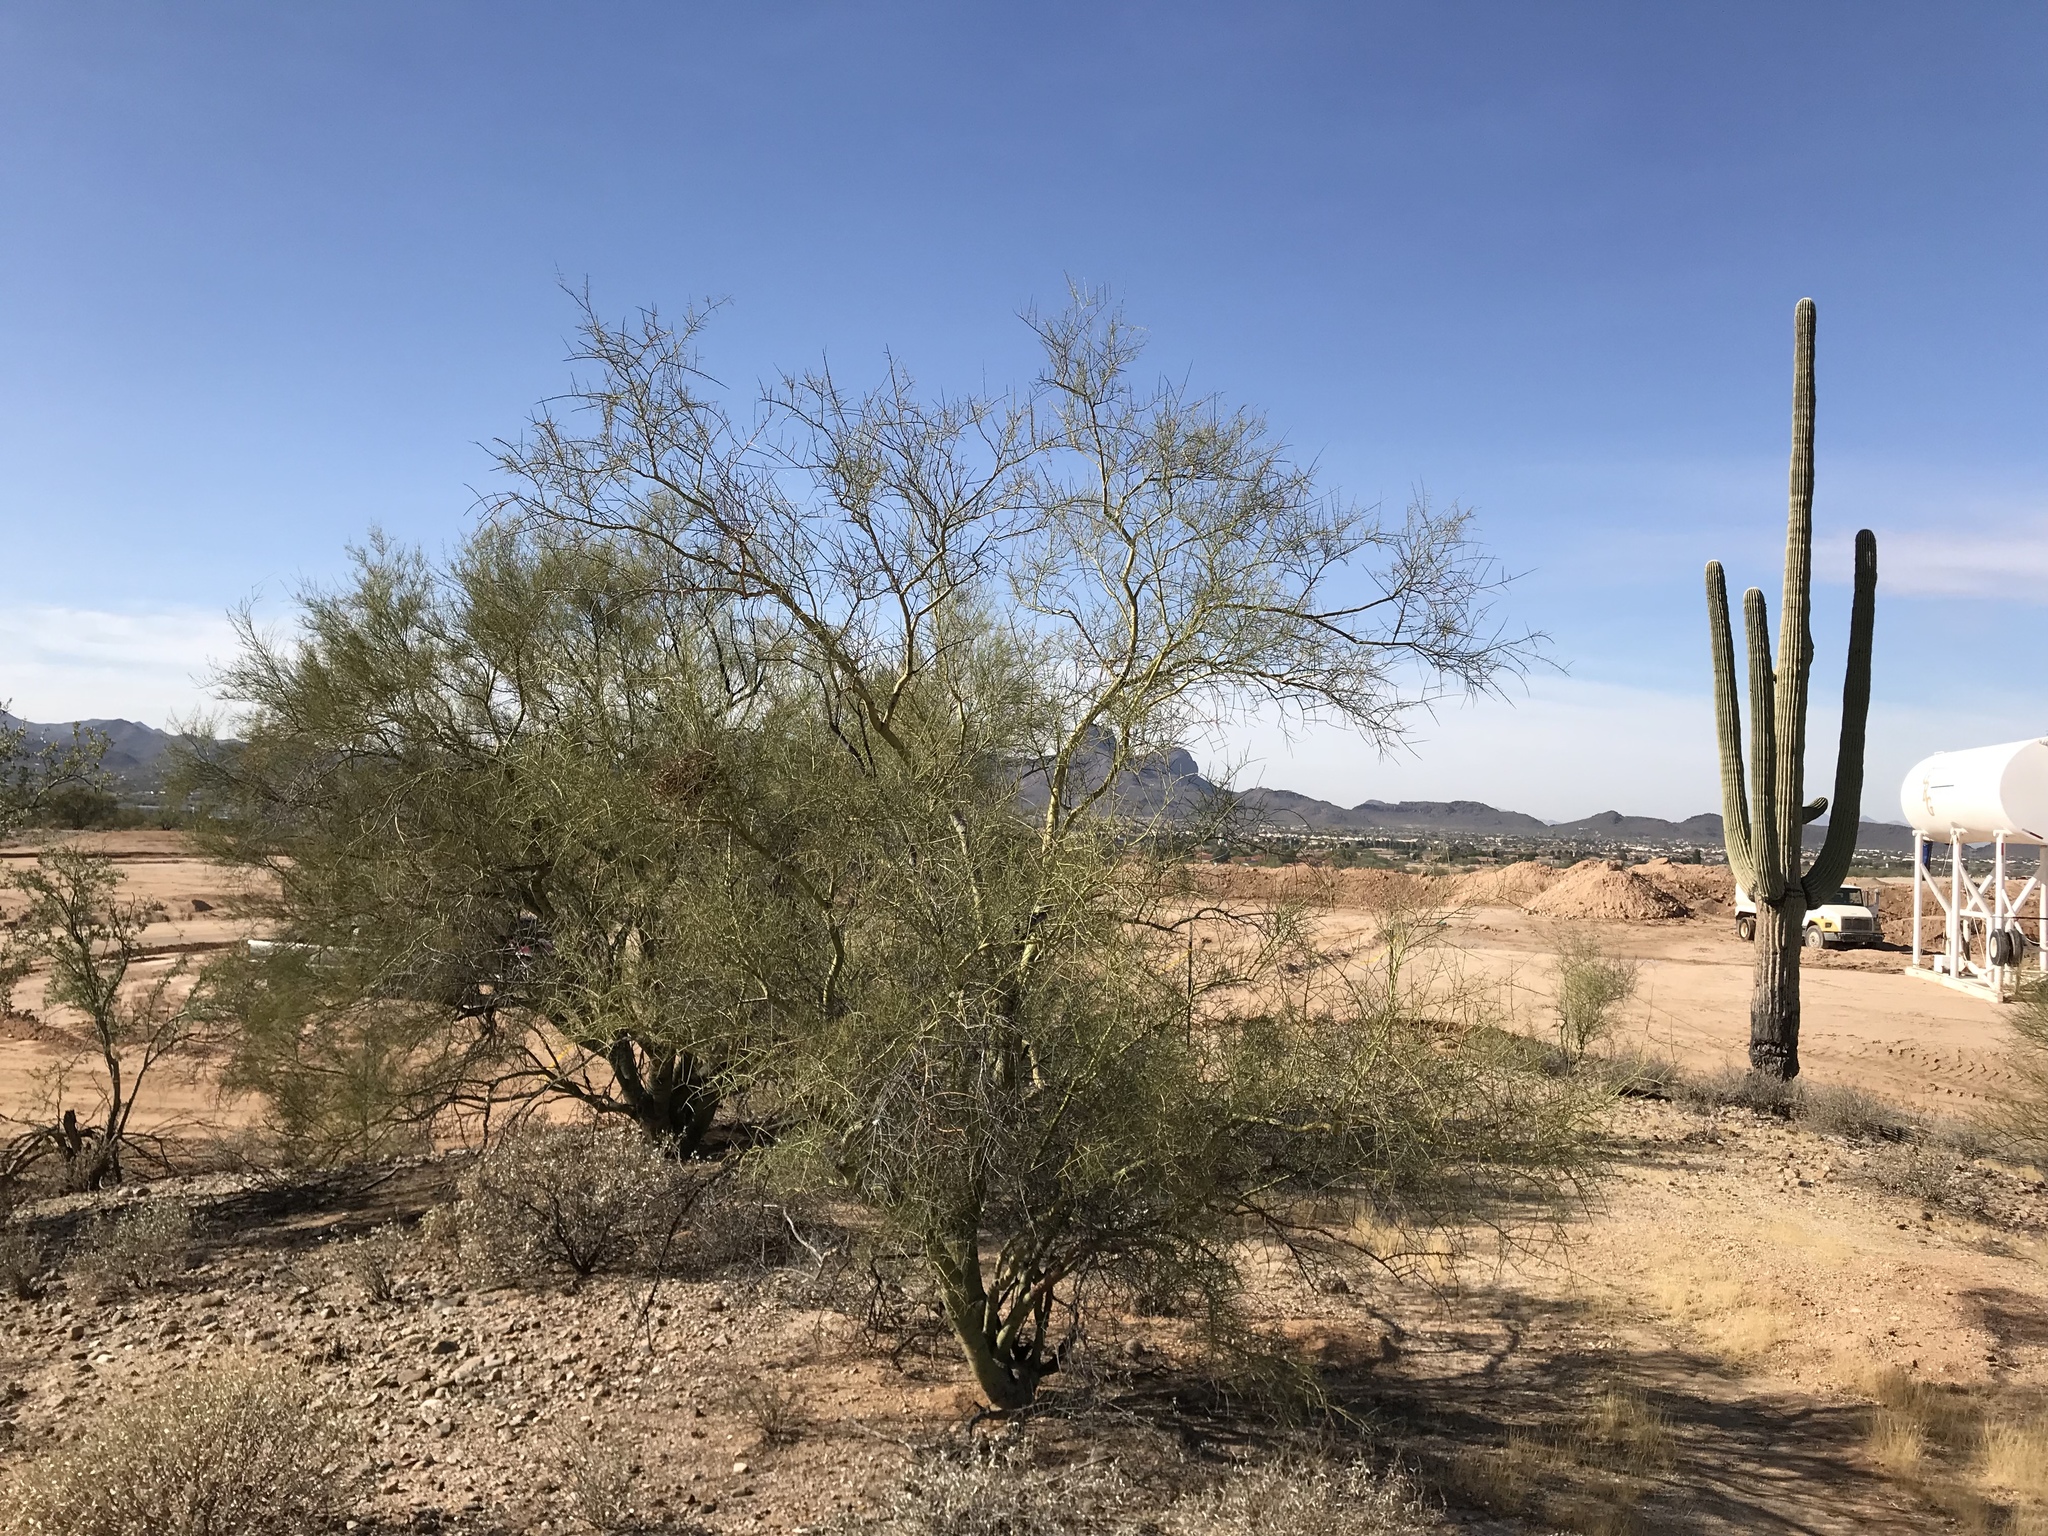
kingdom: Plantae
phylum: Tracheophyta
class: Magnoliopsida
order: Fabales
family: Fabaceae
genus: Parkinsonia
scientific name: Parkinsonia microphylla
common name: Yellow paloverde
